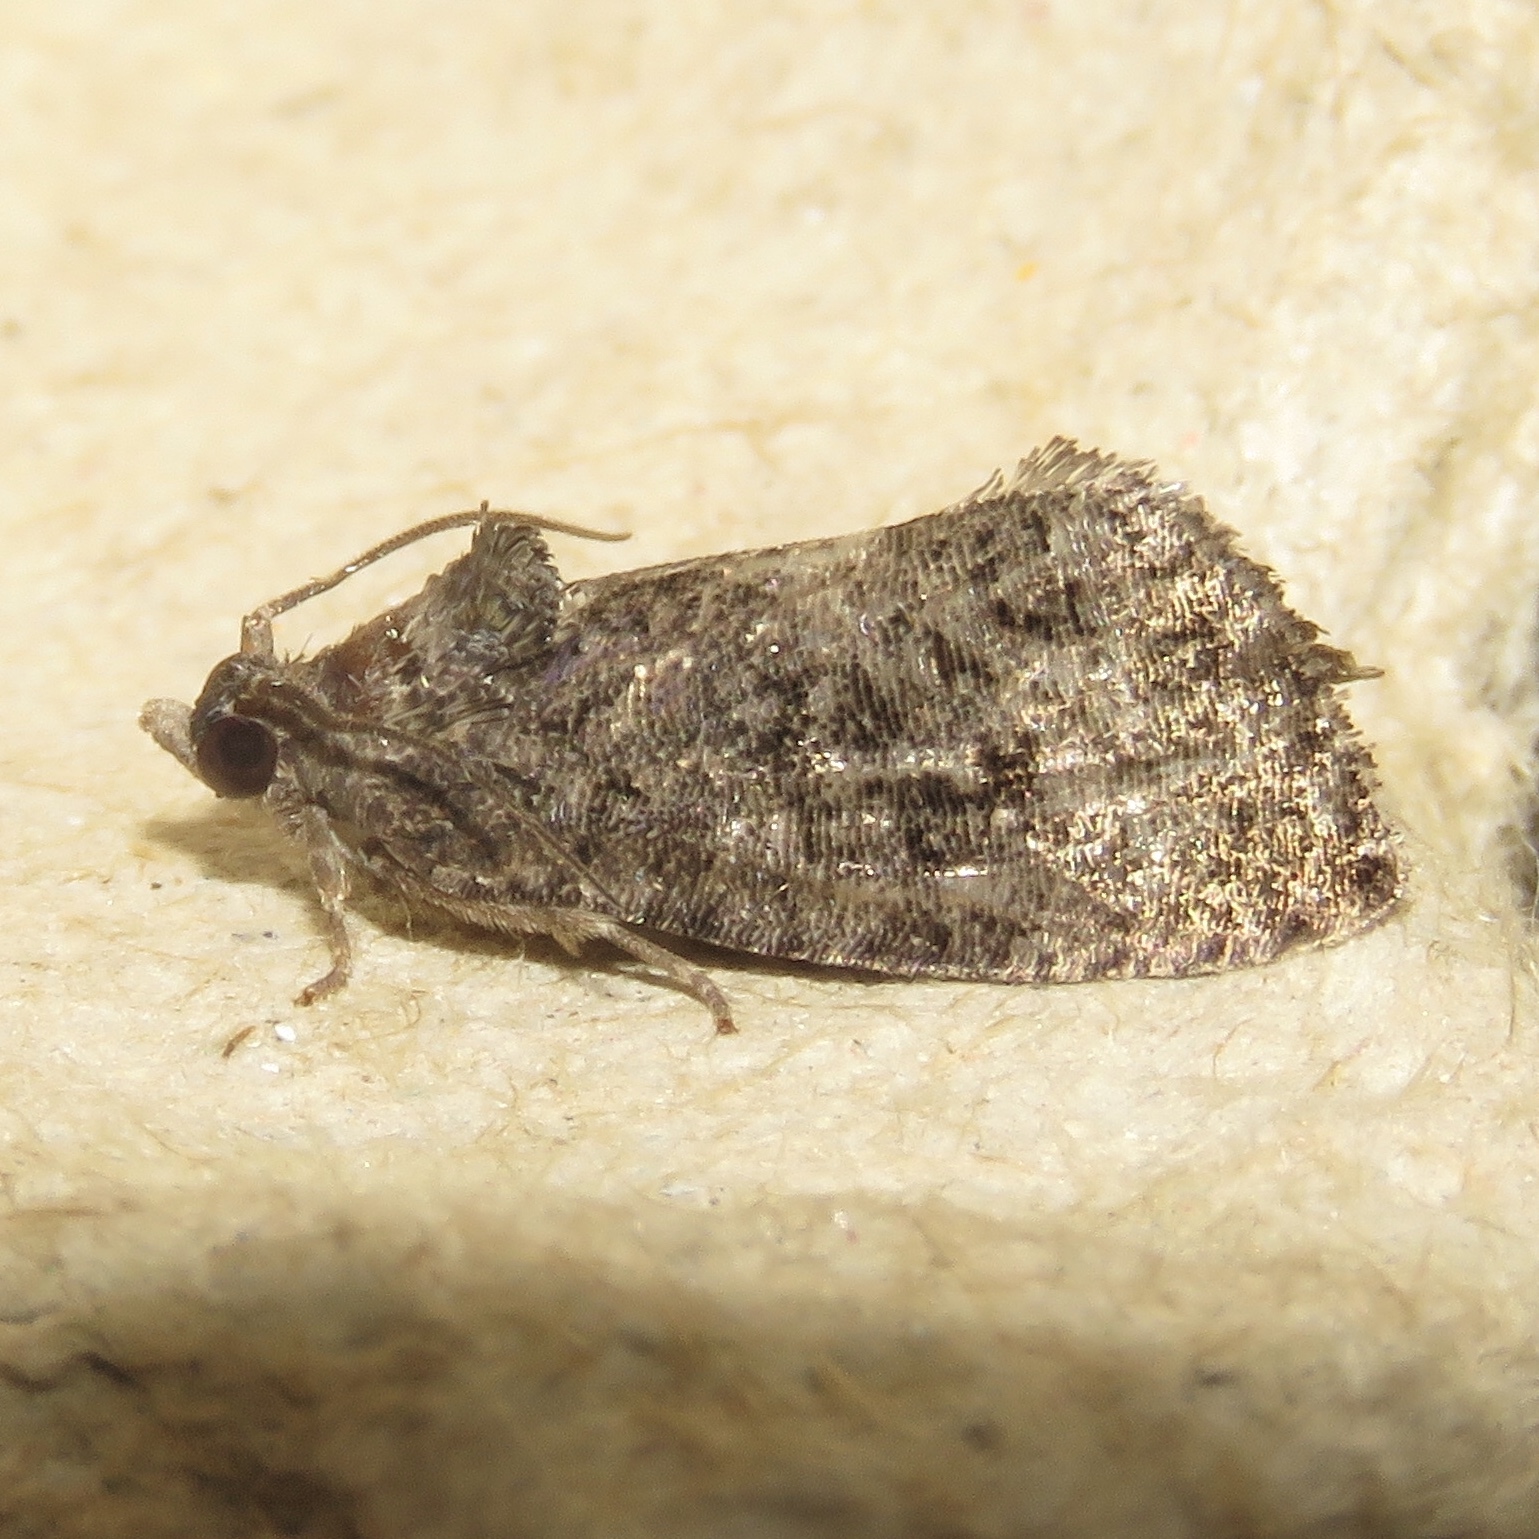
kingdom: Animalia
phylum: Arthropoda
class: Insecta
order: Lepidoptera
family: Tortricidae
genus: Gymnandrosoma
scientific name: Gymnandrosoma punctidiscanum
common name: Dotted ecdytolopha moth
